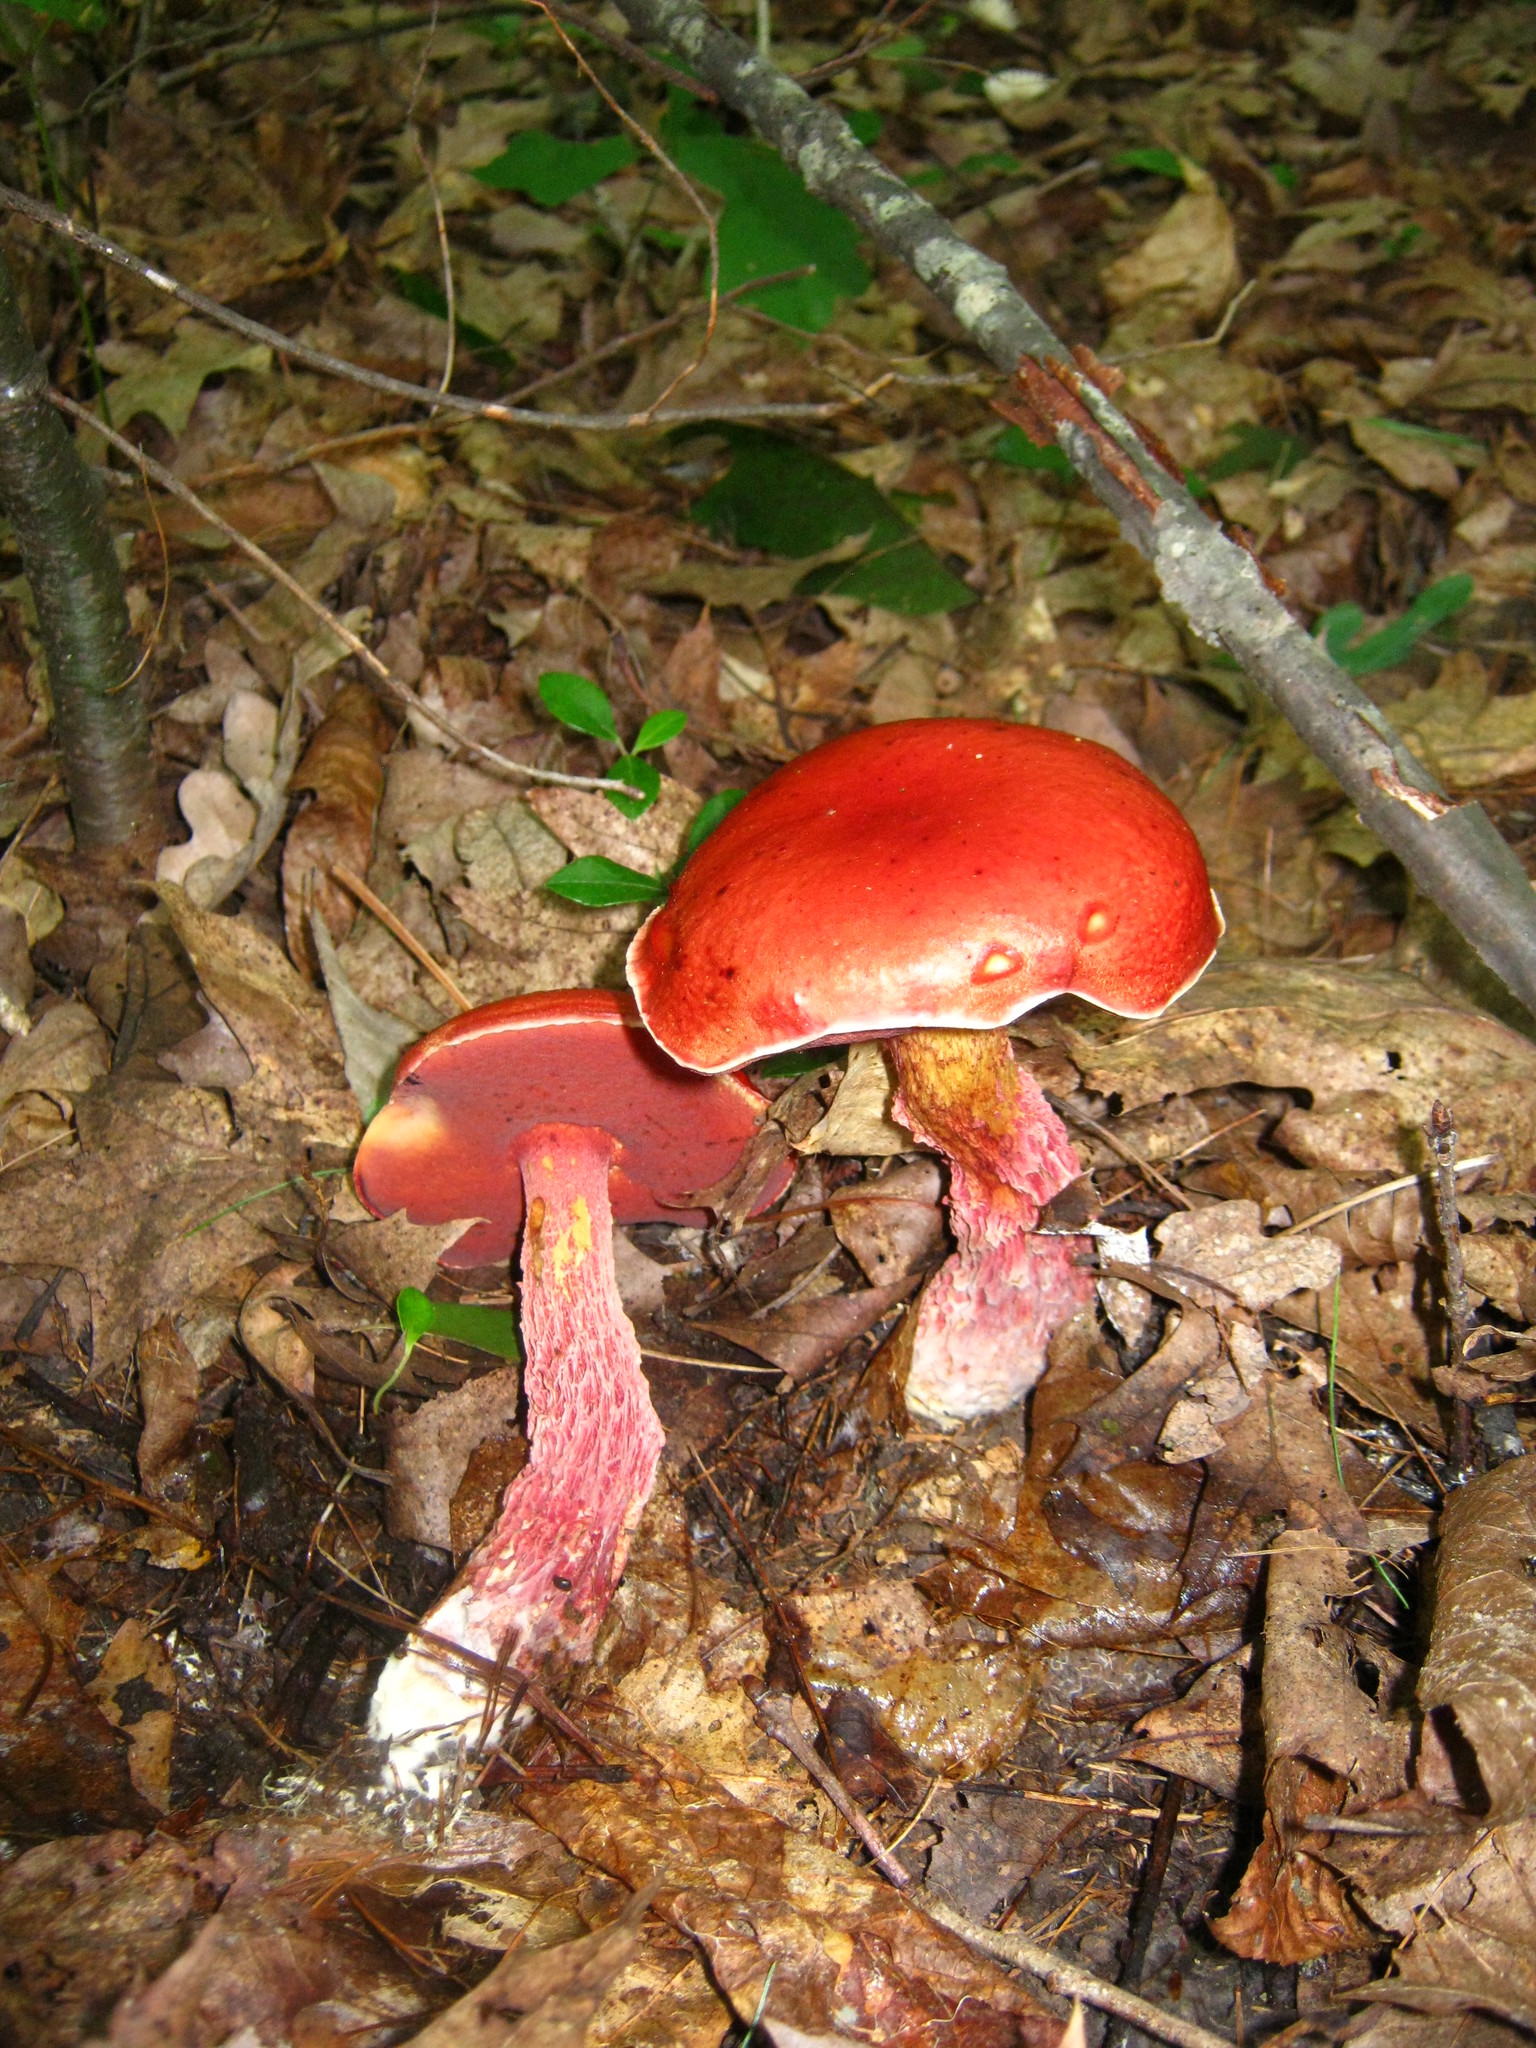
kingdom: Fungi
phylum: Basidiomycota
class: Agaricomycetes
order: Boletales
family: Boletaceae
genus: Butyriboletus
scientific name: Butyriboletus frostii
